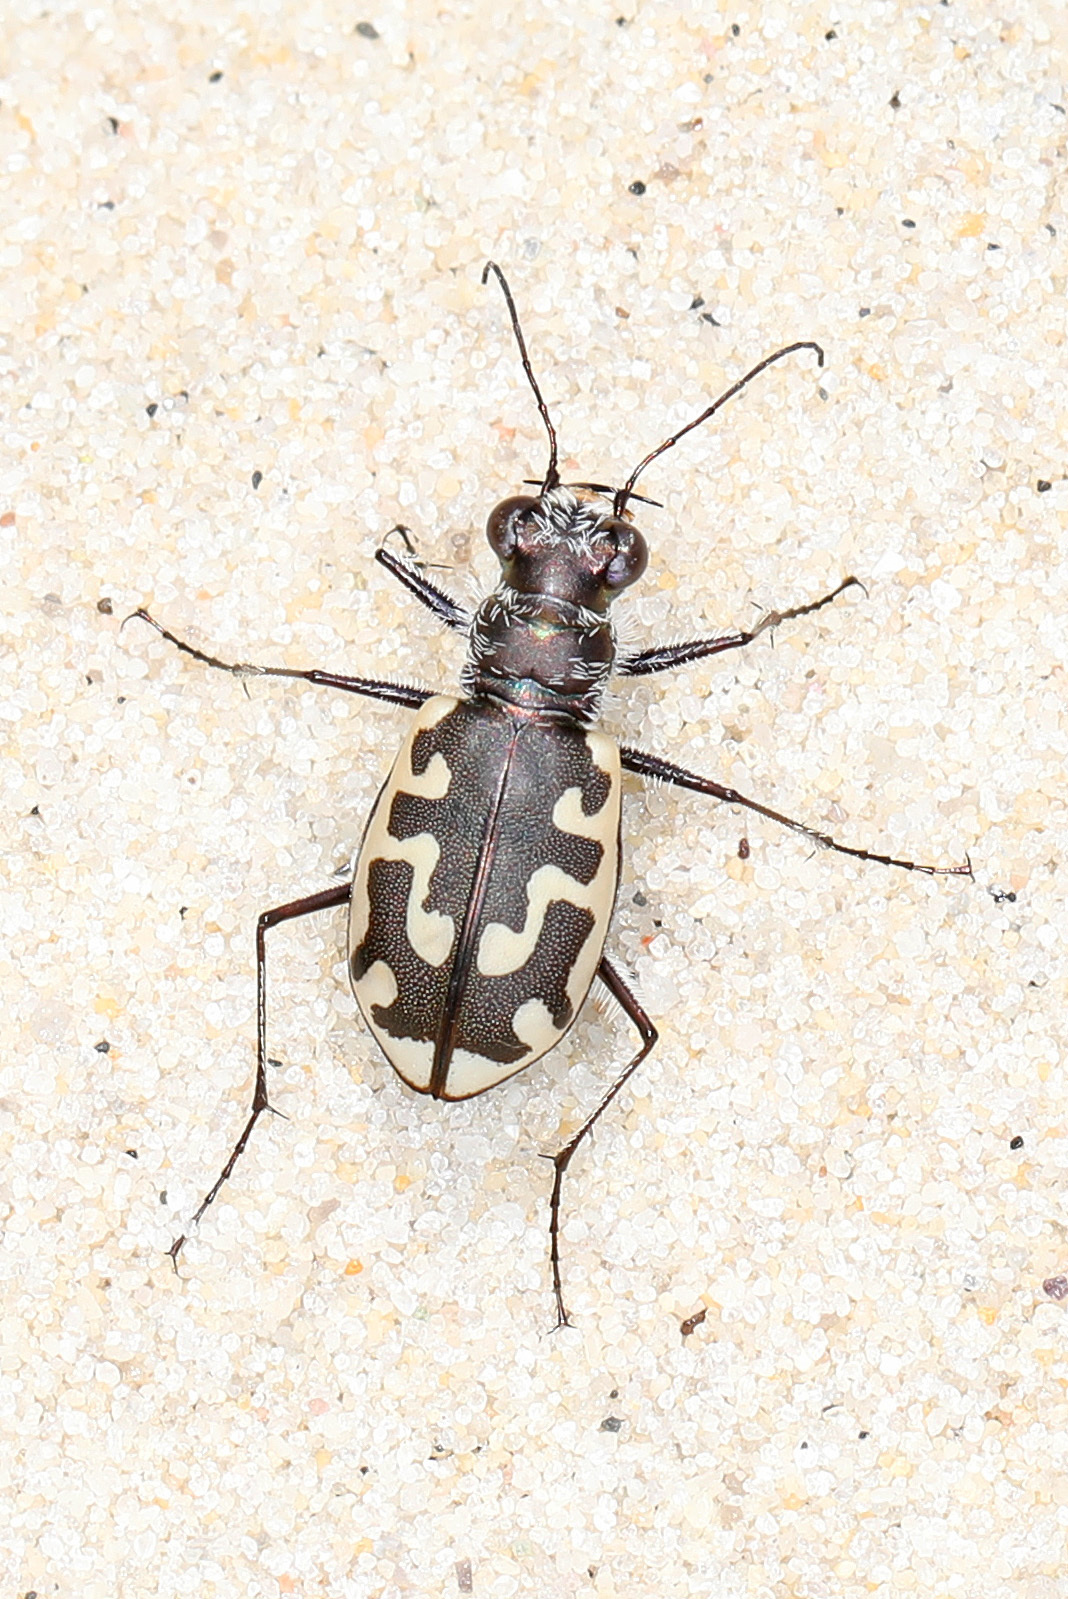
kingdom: Animalia
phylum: Arthropoda
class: Insecta
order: Coleoptera
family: Carabidae
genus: Cicindela
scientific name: Cicindela hirticollis
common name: Hairy-necked tiger beetle
